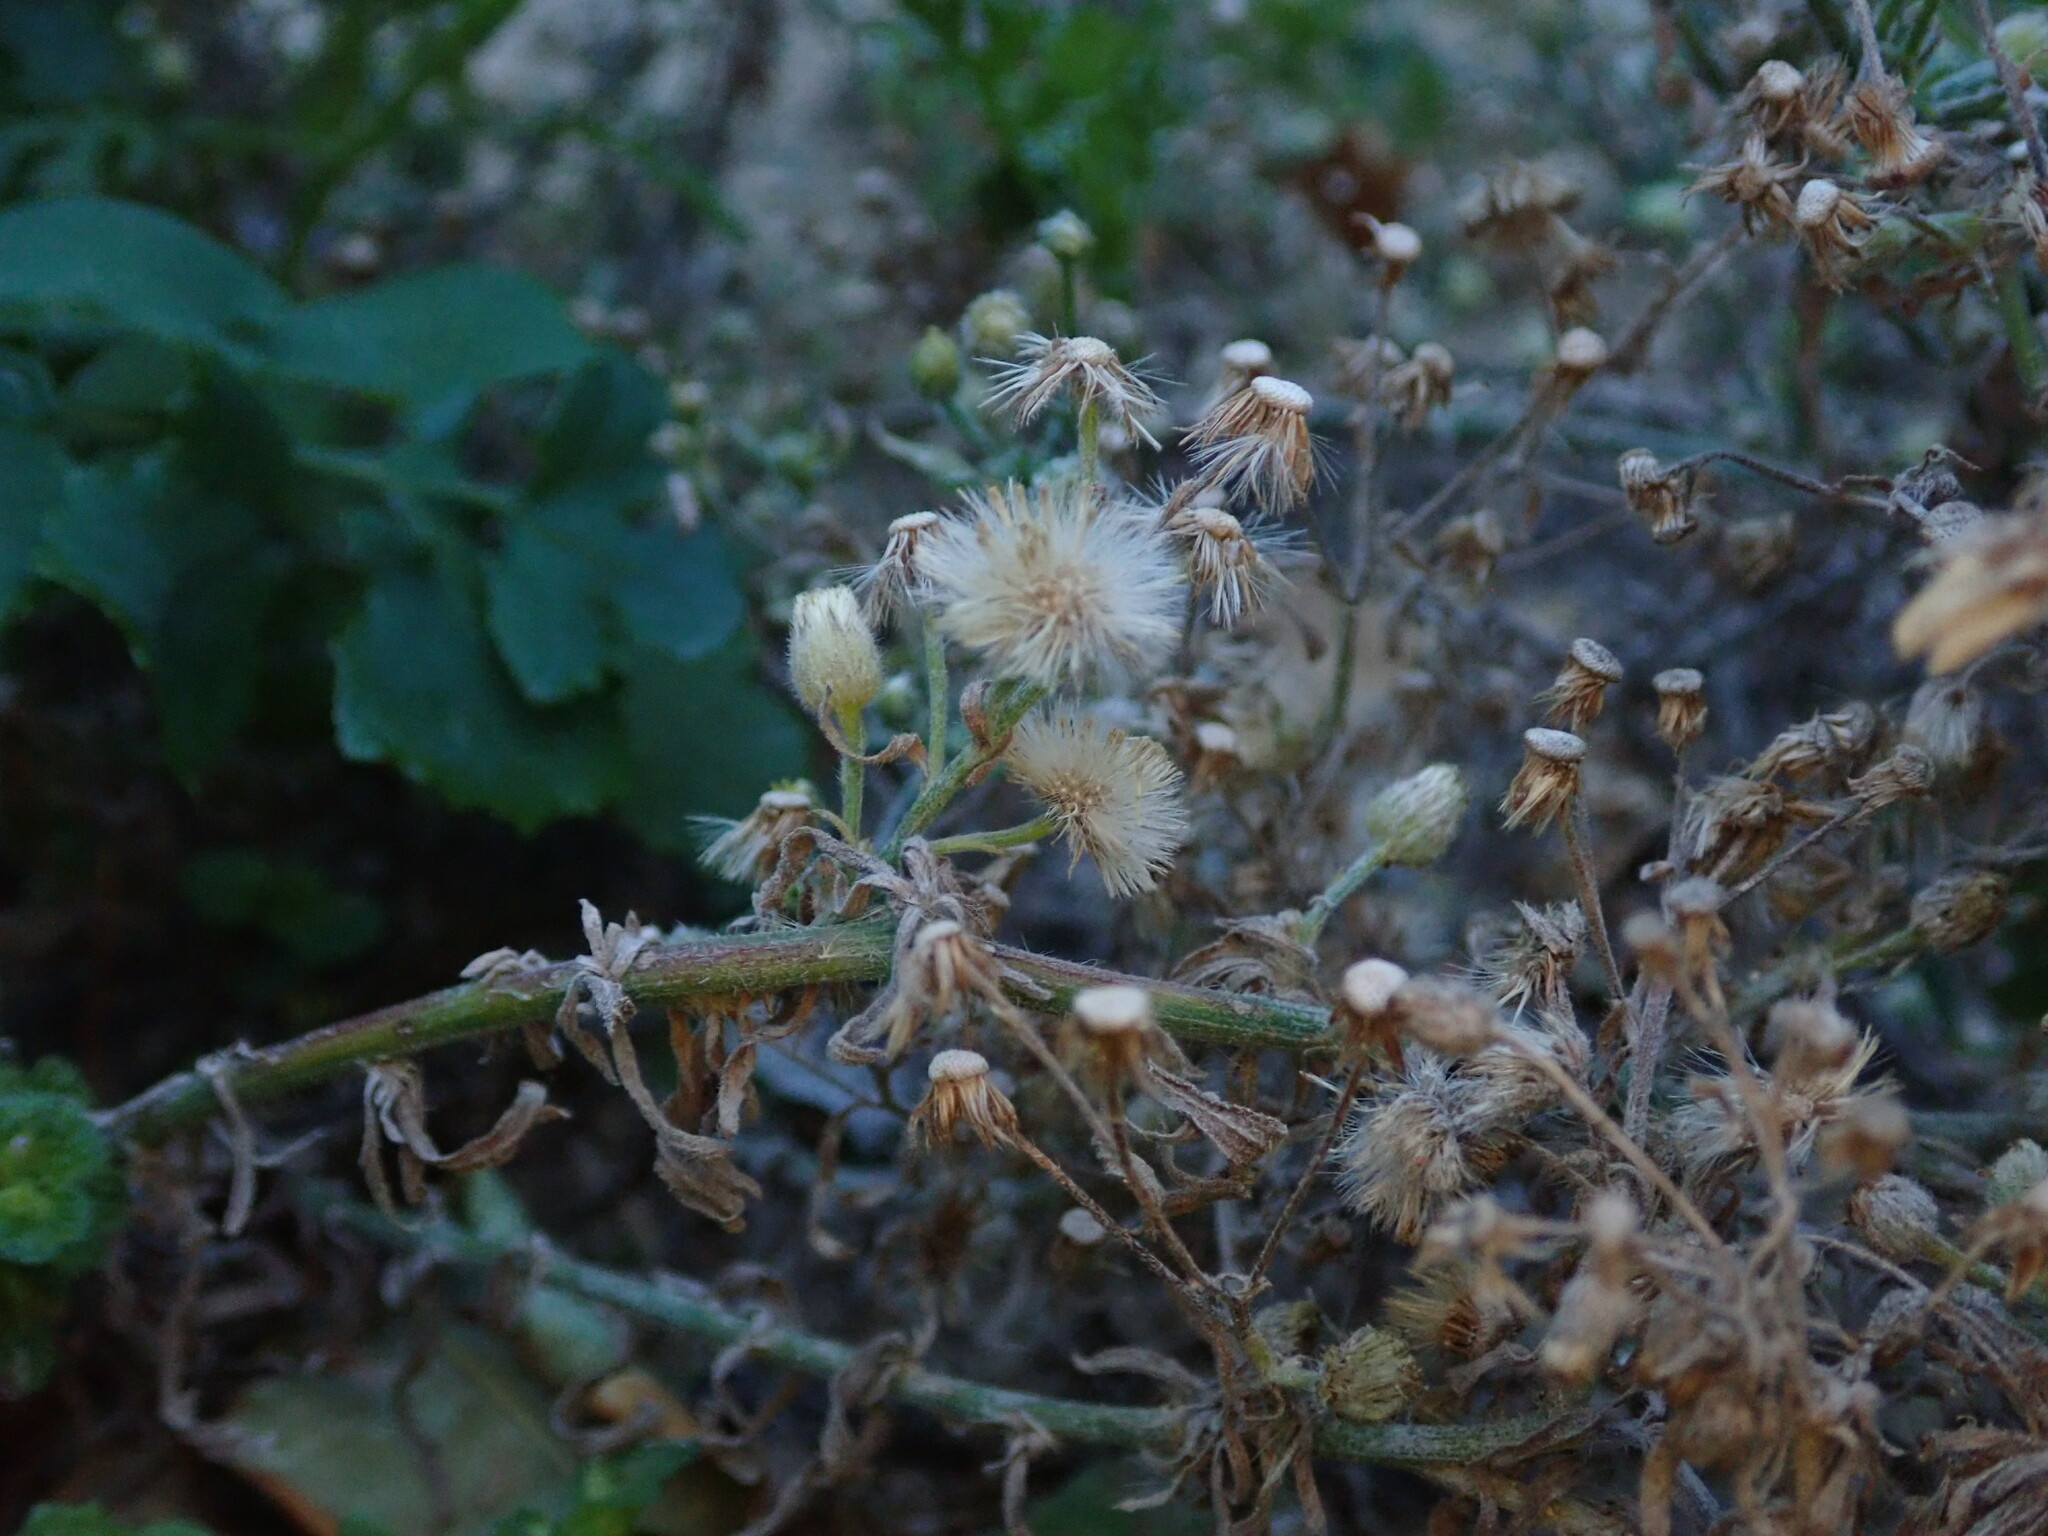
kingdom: Plantae
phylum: Tracheophyta
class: Magnoliopsida
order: Asterales
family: Asteraceae
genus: Erigeron
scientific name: Erigeron bonariensis
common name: Argentine fleabane
